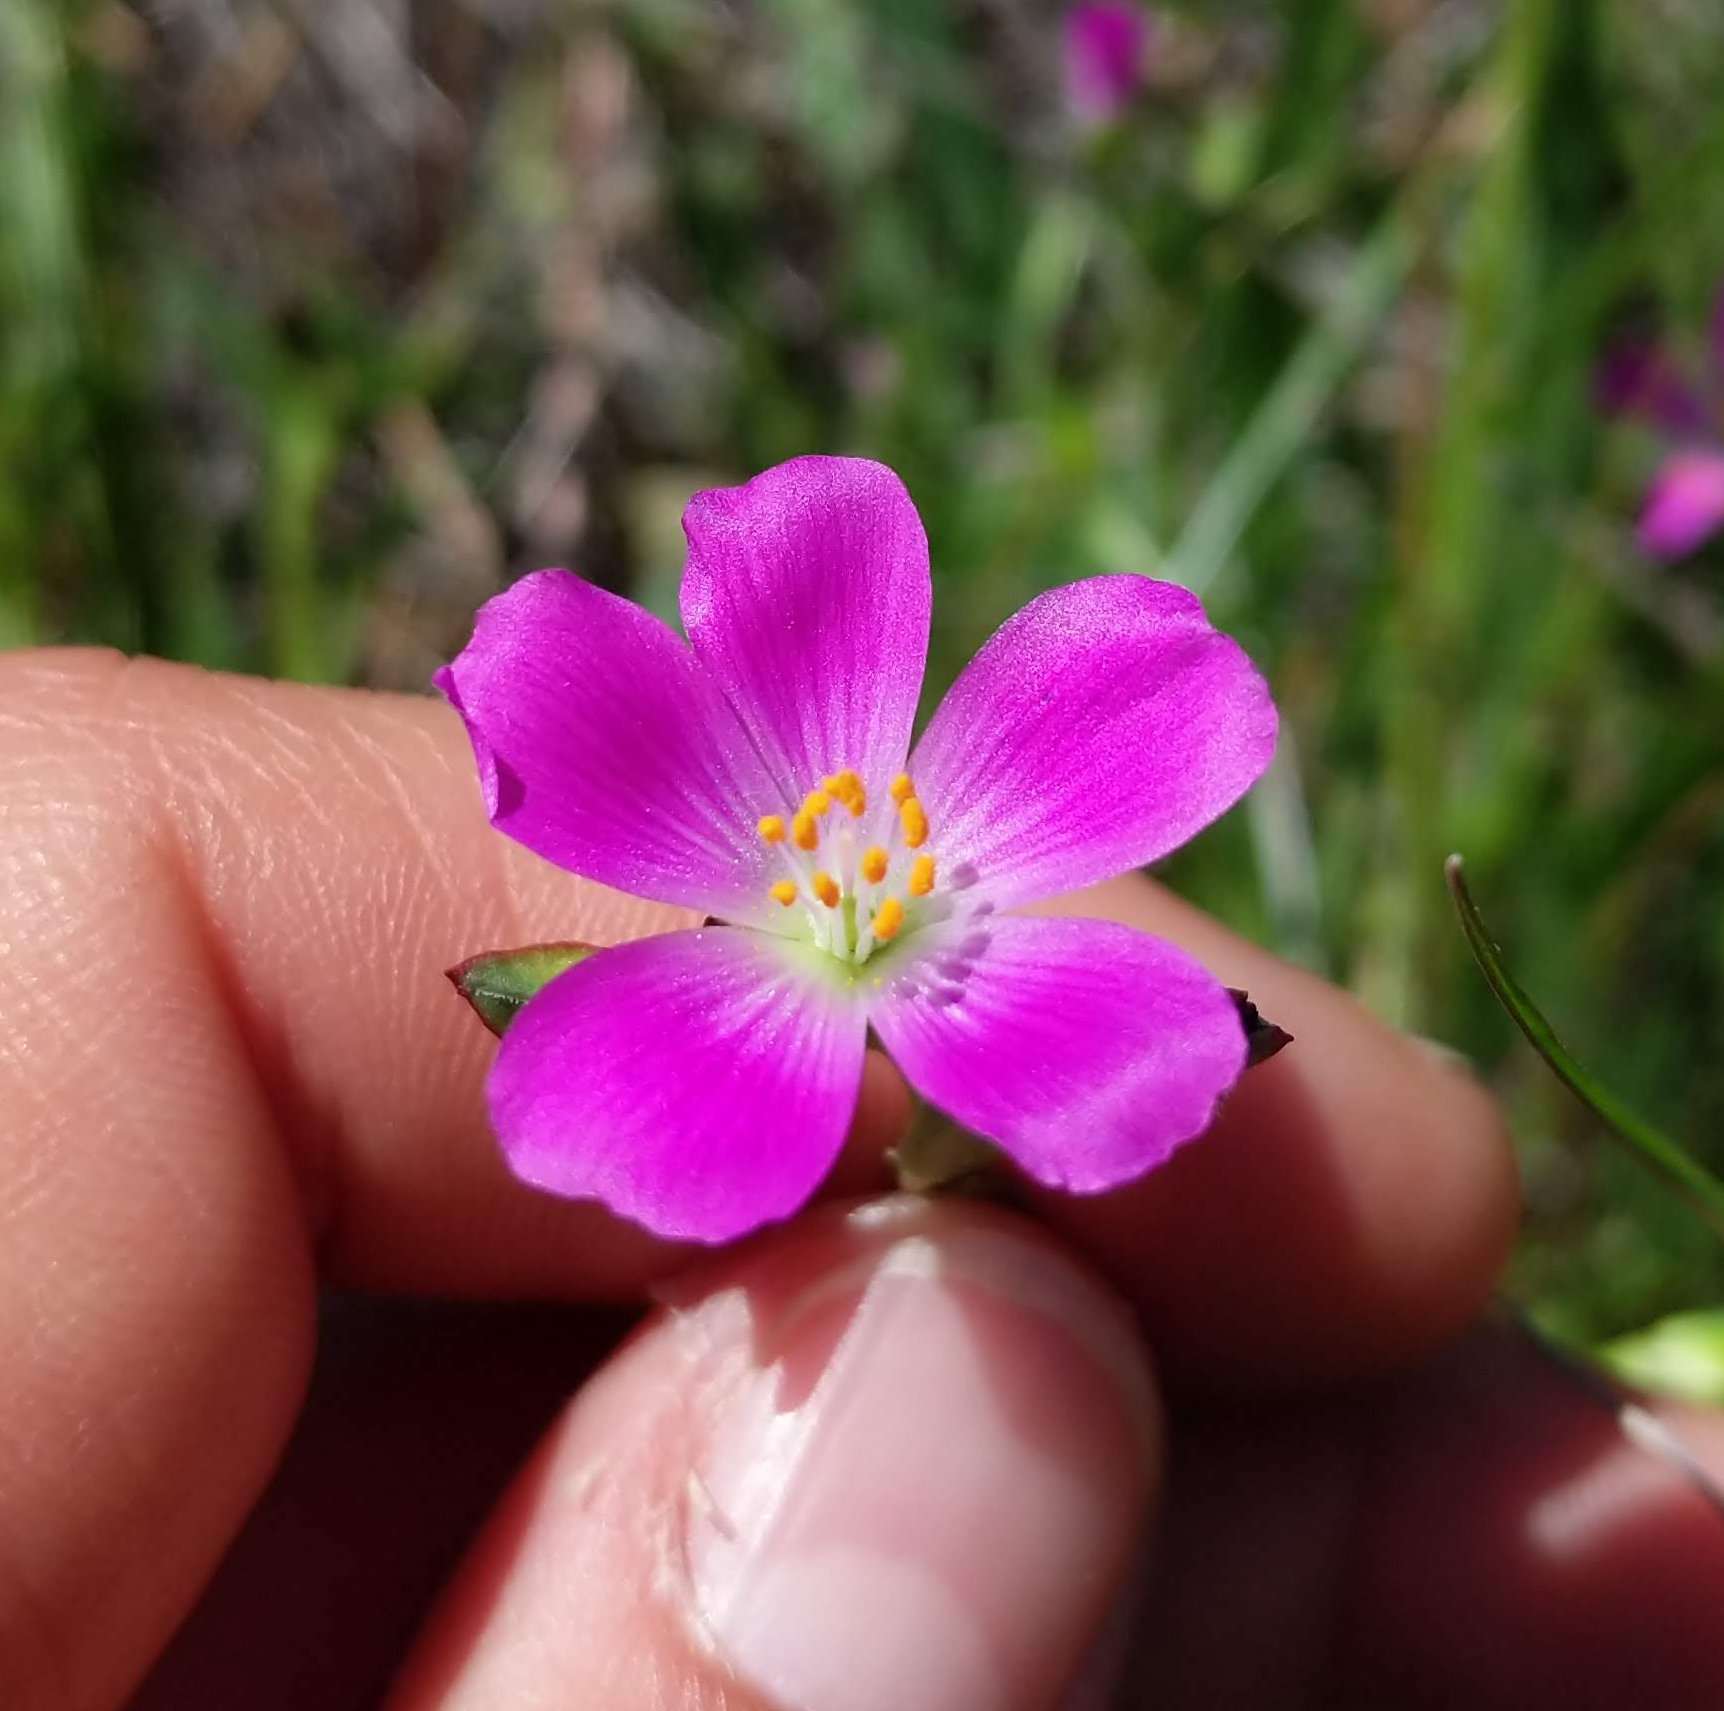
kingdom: Plantae
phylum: Tracheophyta
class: Magnoliopsida
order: Caryophyllales
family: Montiaceae
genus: Calandrinia
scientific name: Calandrinia menziesii
